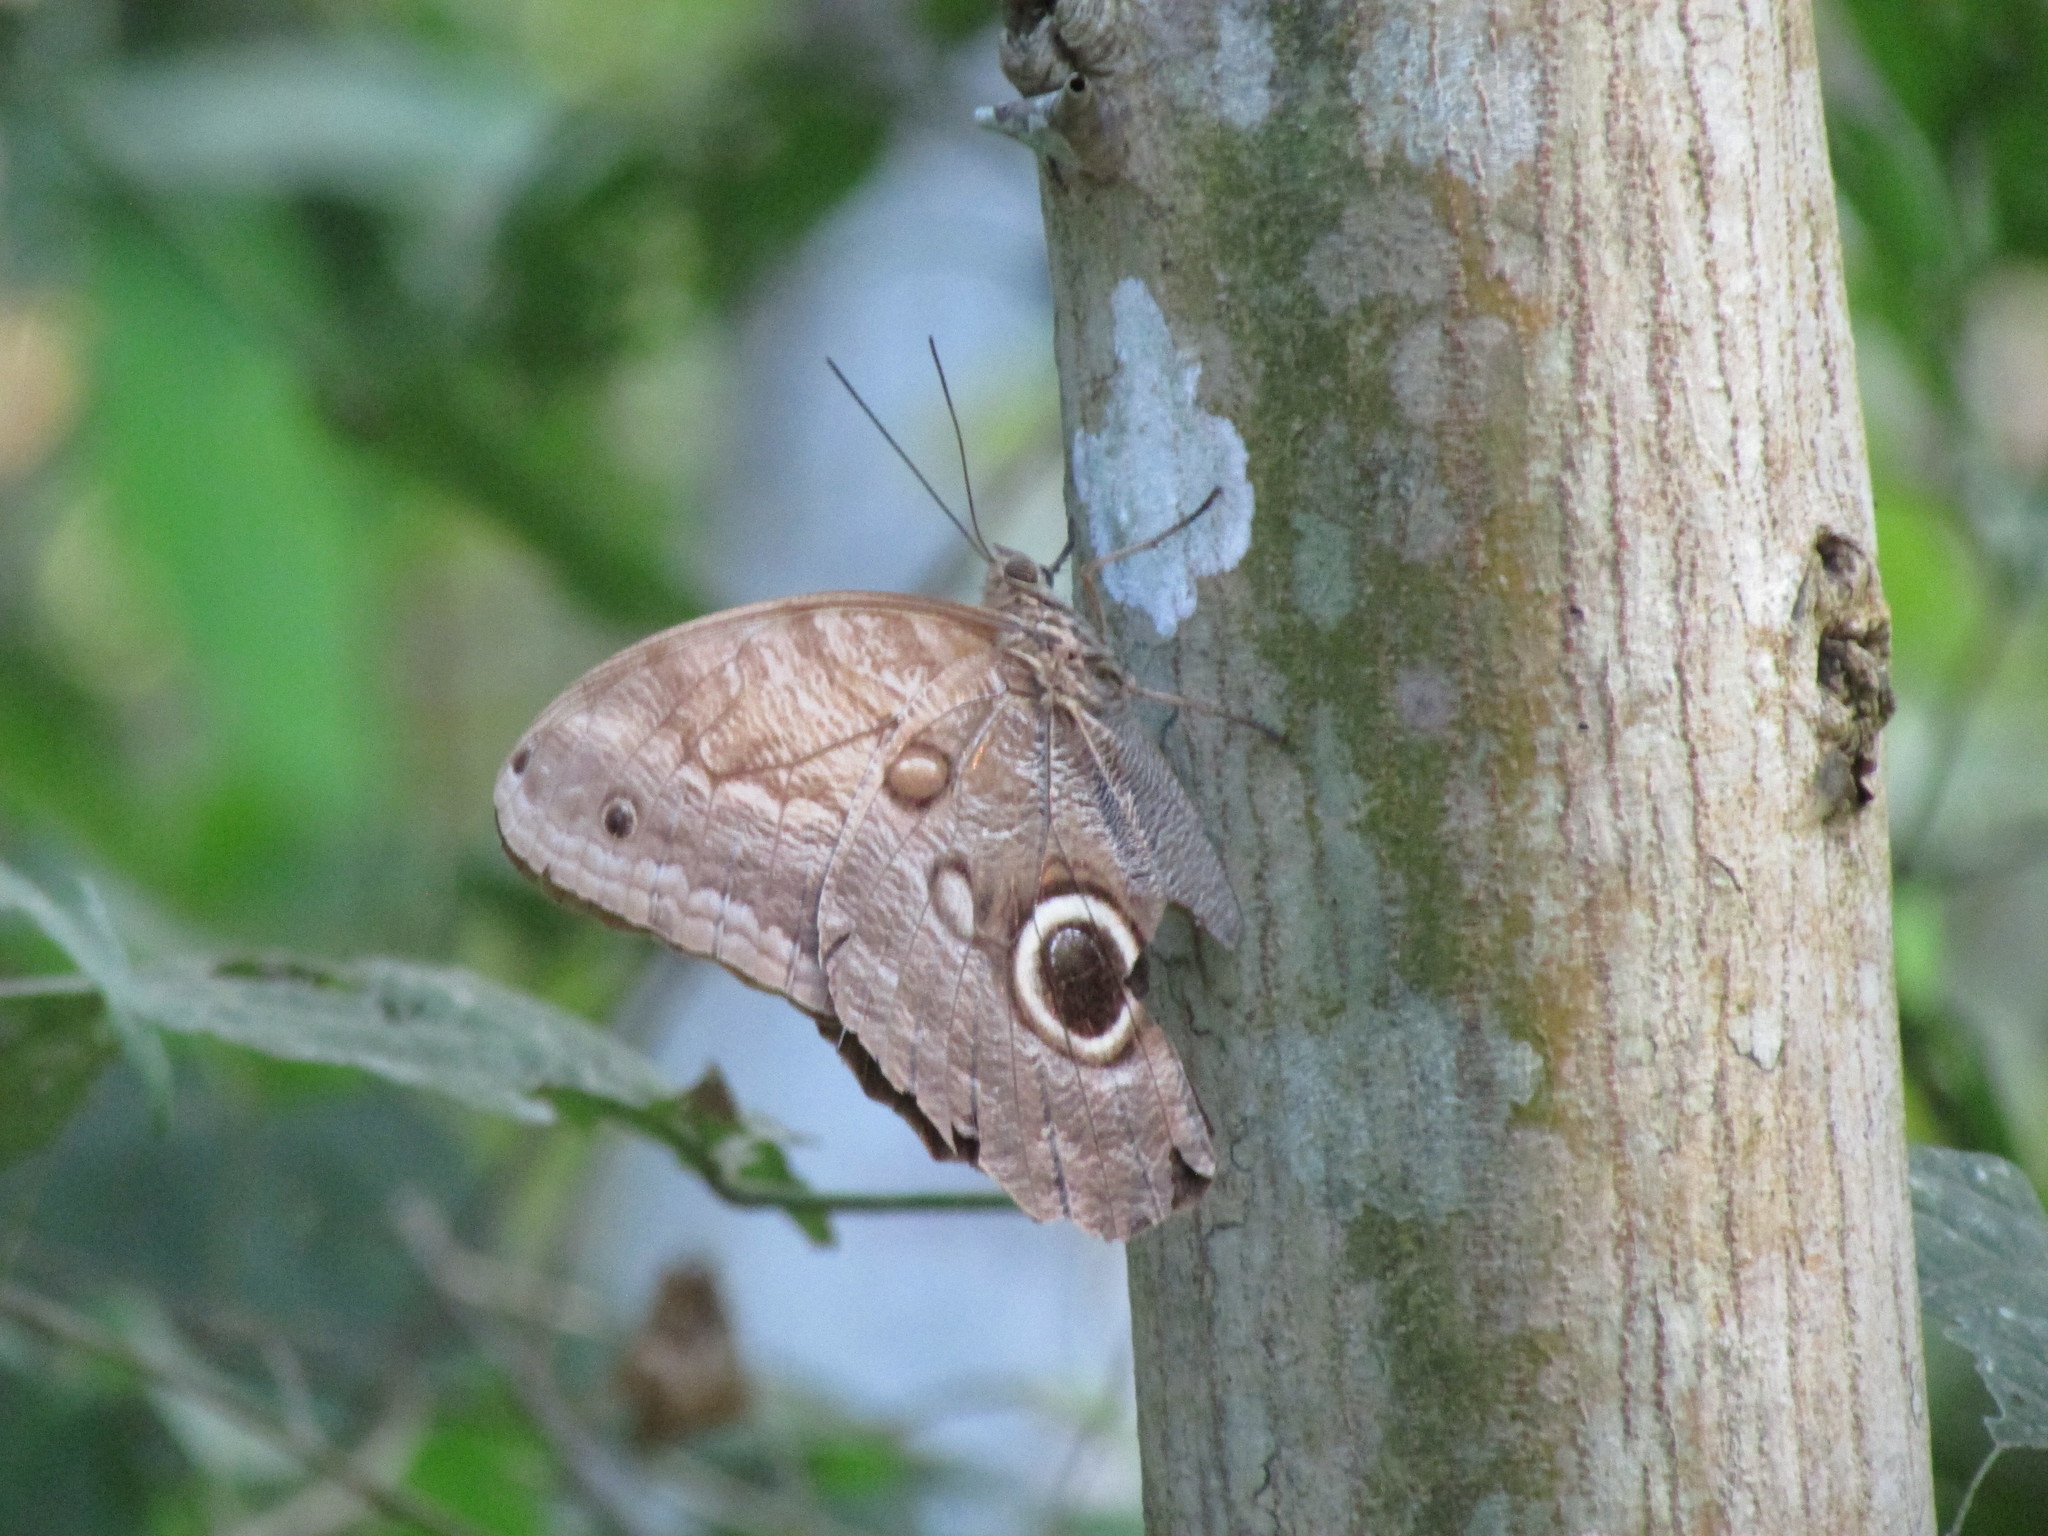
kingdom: Animalia
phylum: Arthropoda
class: Insecta
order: Lepidoptera
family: Nymphalidae
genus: Caligo
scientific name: Caligo telamonius
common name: Pale owl-butterfly
